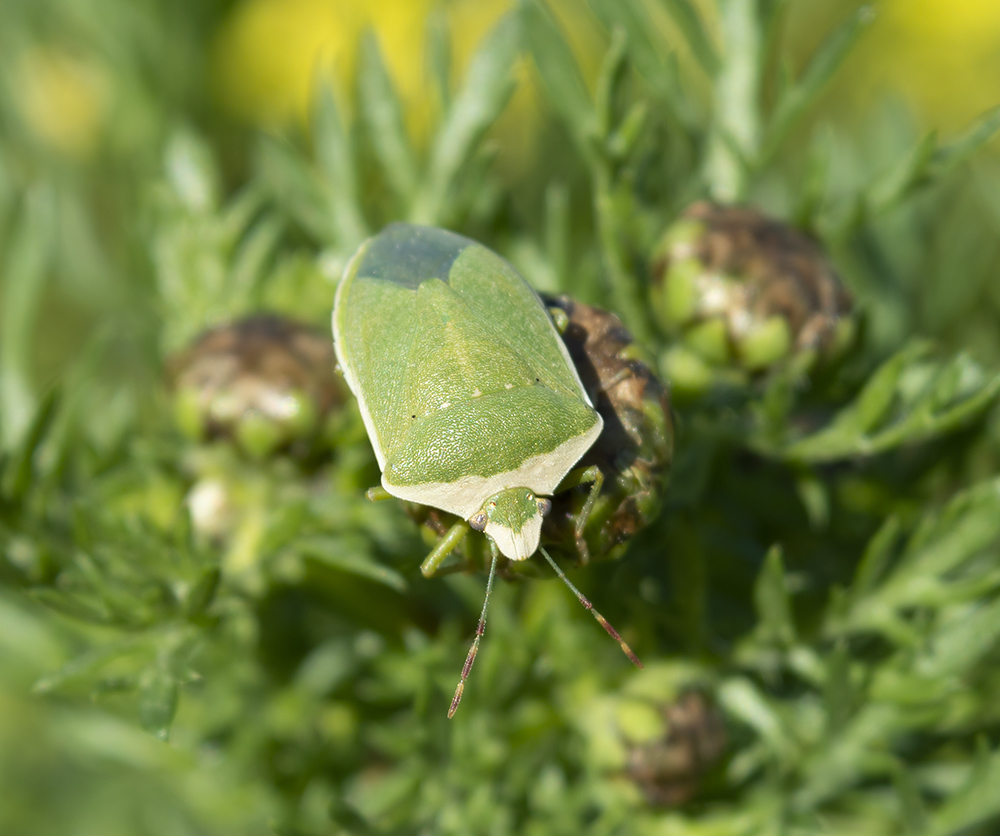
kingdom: Animalia
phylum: Arthropoda
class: Insecta
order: Hemiptera
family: Pentatomidae
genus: Nezara
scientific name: Nezara viridula
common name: Southern green stink bug
